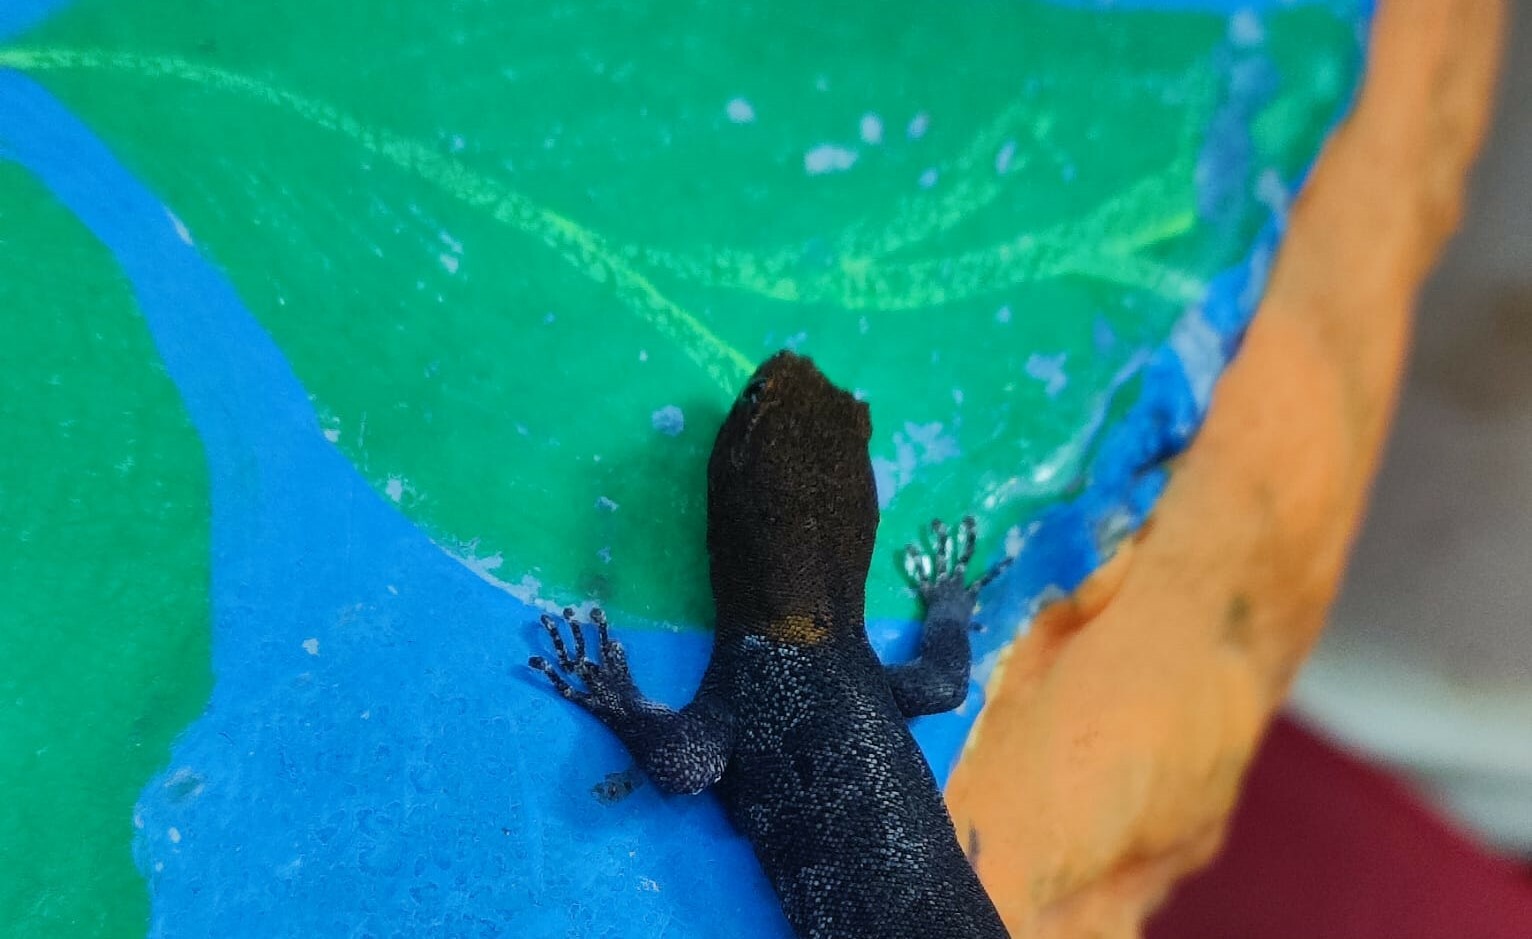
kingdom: Animalia
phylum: Chordata
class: Squamata
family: Sphaerodactylidae
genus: Gonatodes
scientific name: Gonatodes albogularis
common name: Yellow-headed gecko
